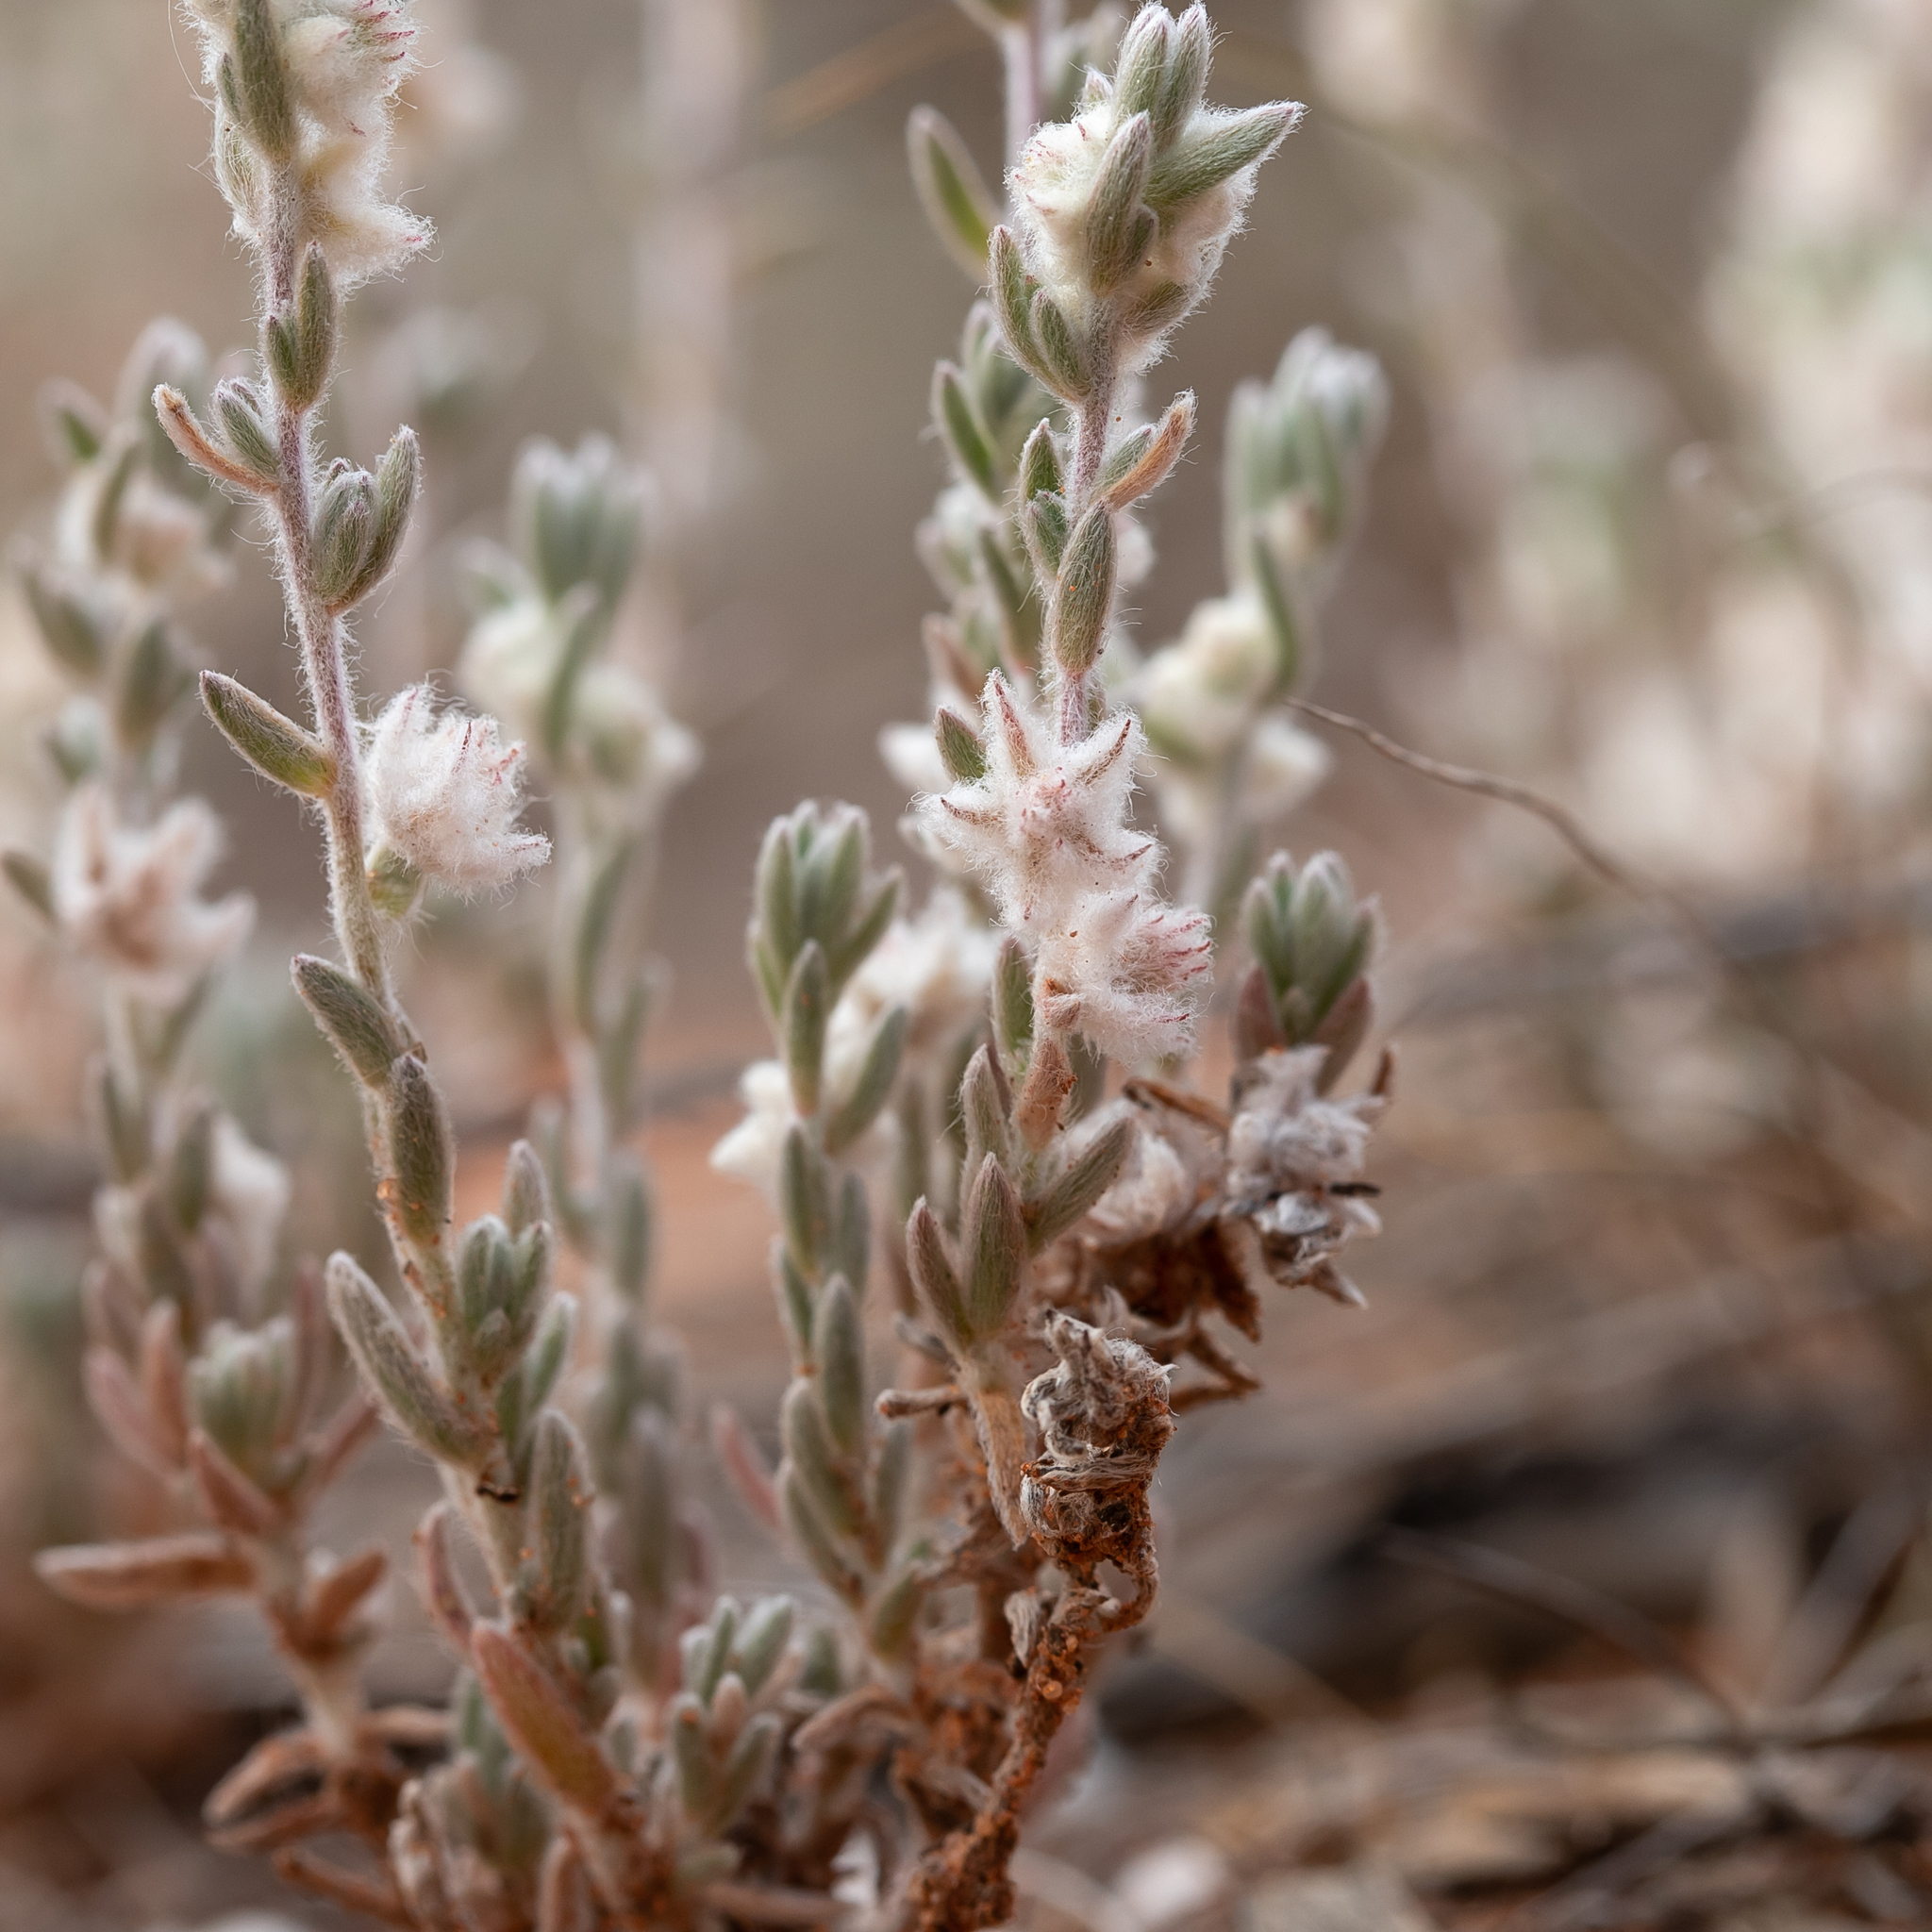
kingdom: Plantae
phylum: Tracheophyta
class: Magnoliopsida
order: Caryophyllales
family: Amaranthaceae
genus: Maireana
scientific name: Maireana sclerolaenoides
